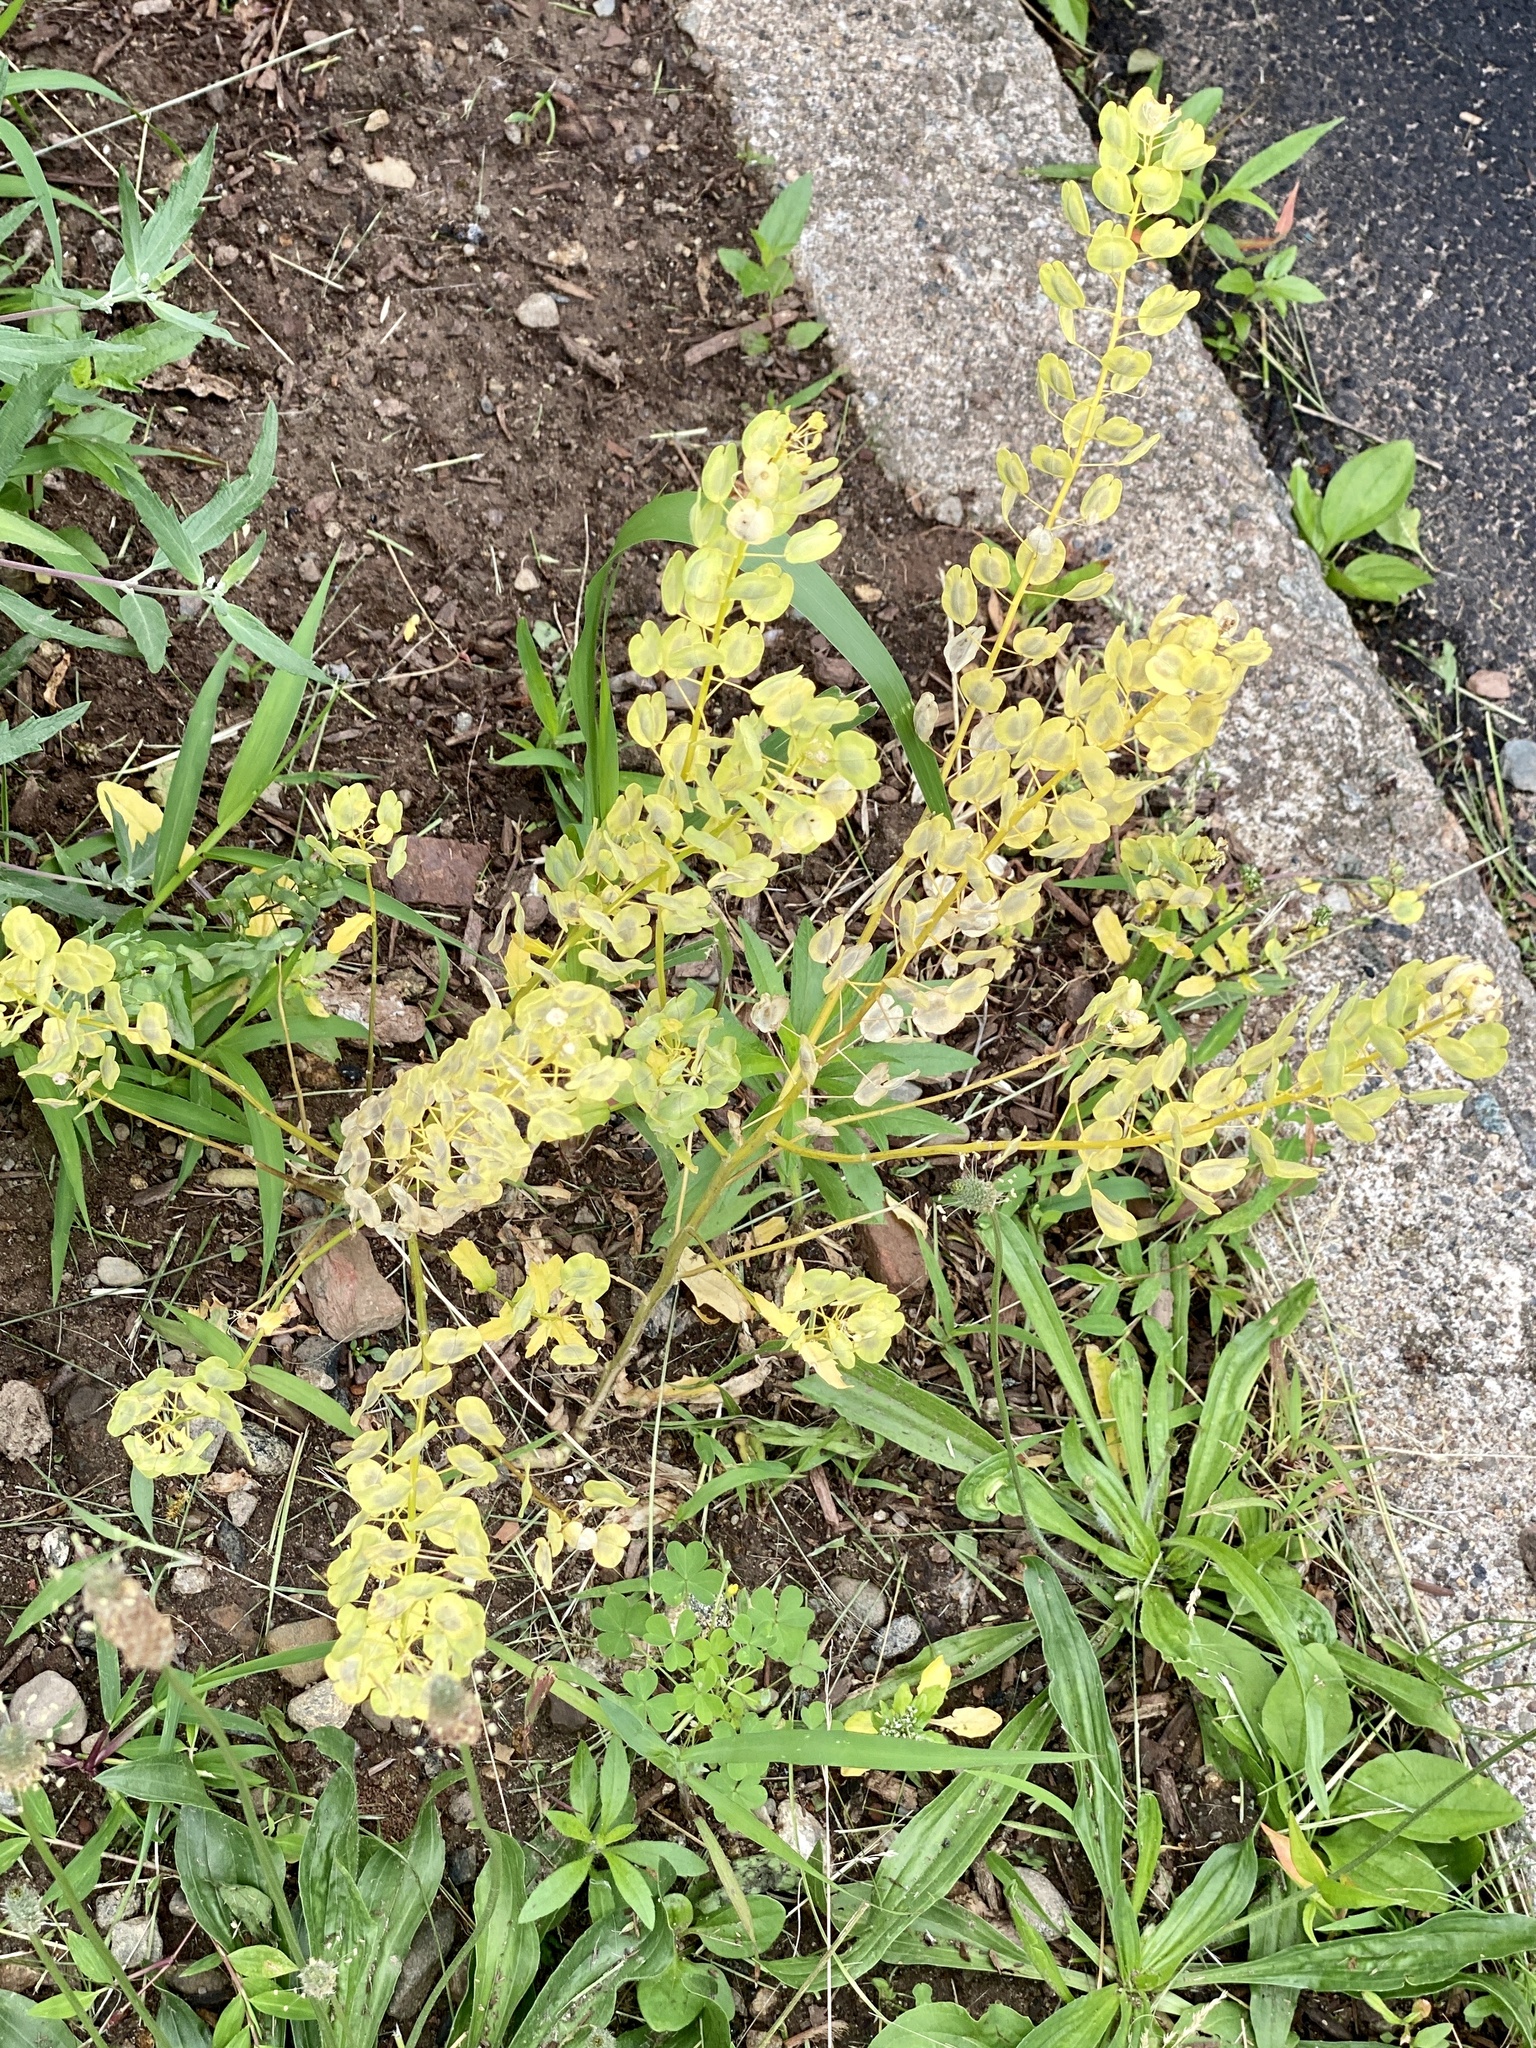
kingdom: Plantae
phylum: Tracheophyta
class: Magnoliopsida
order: Brassicales
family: Brassicaceae
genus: Thlaspi
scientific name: Thlaspi arvense
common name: Field pennycress
